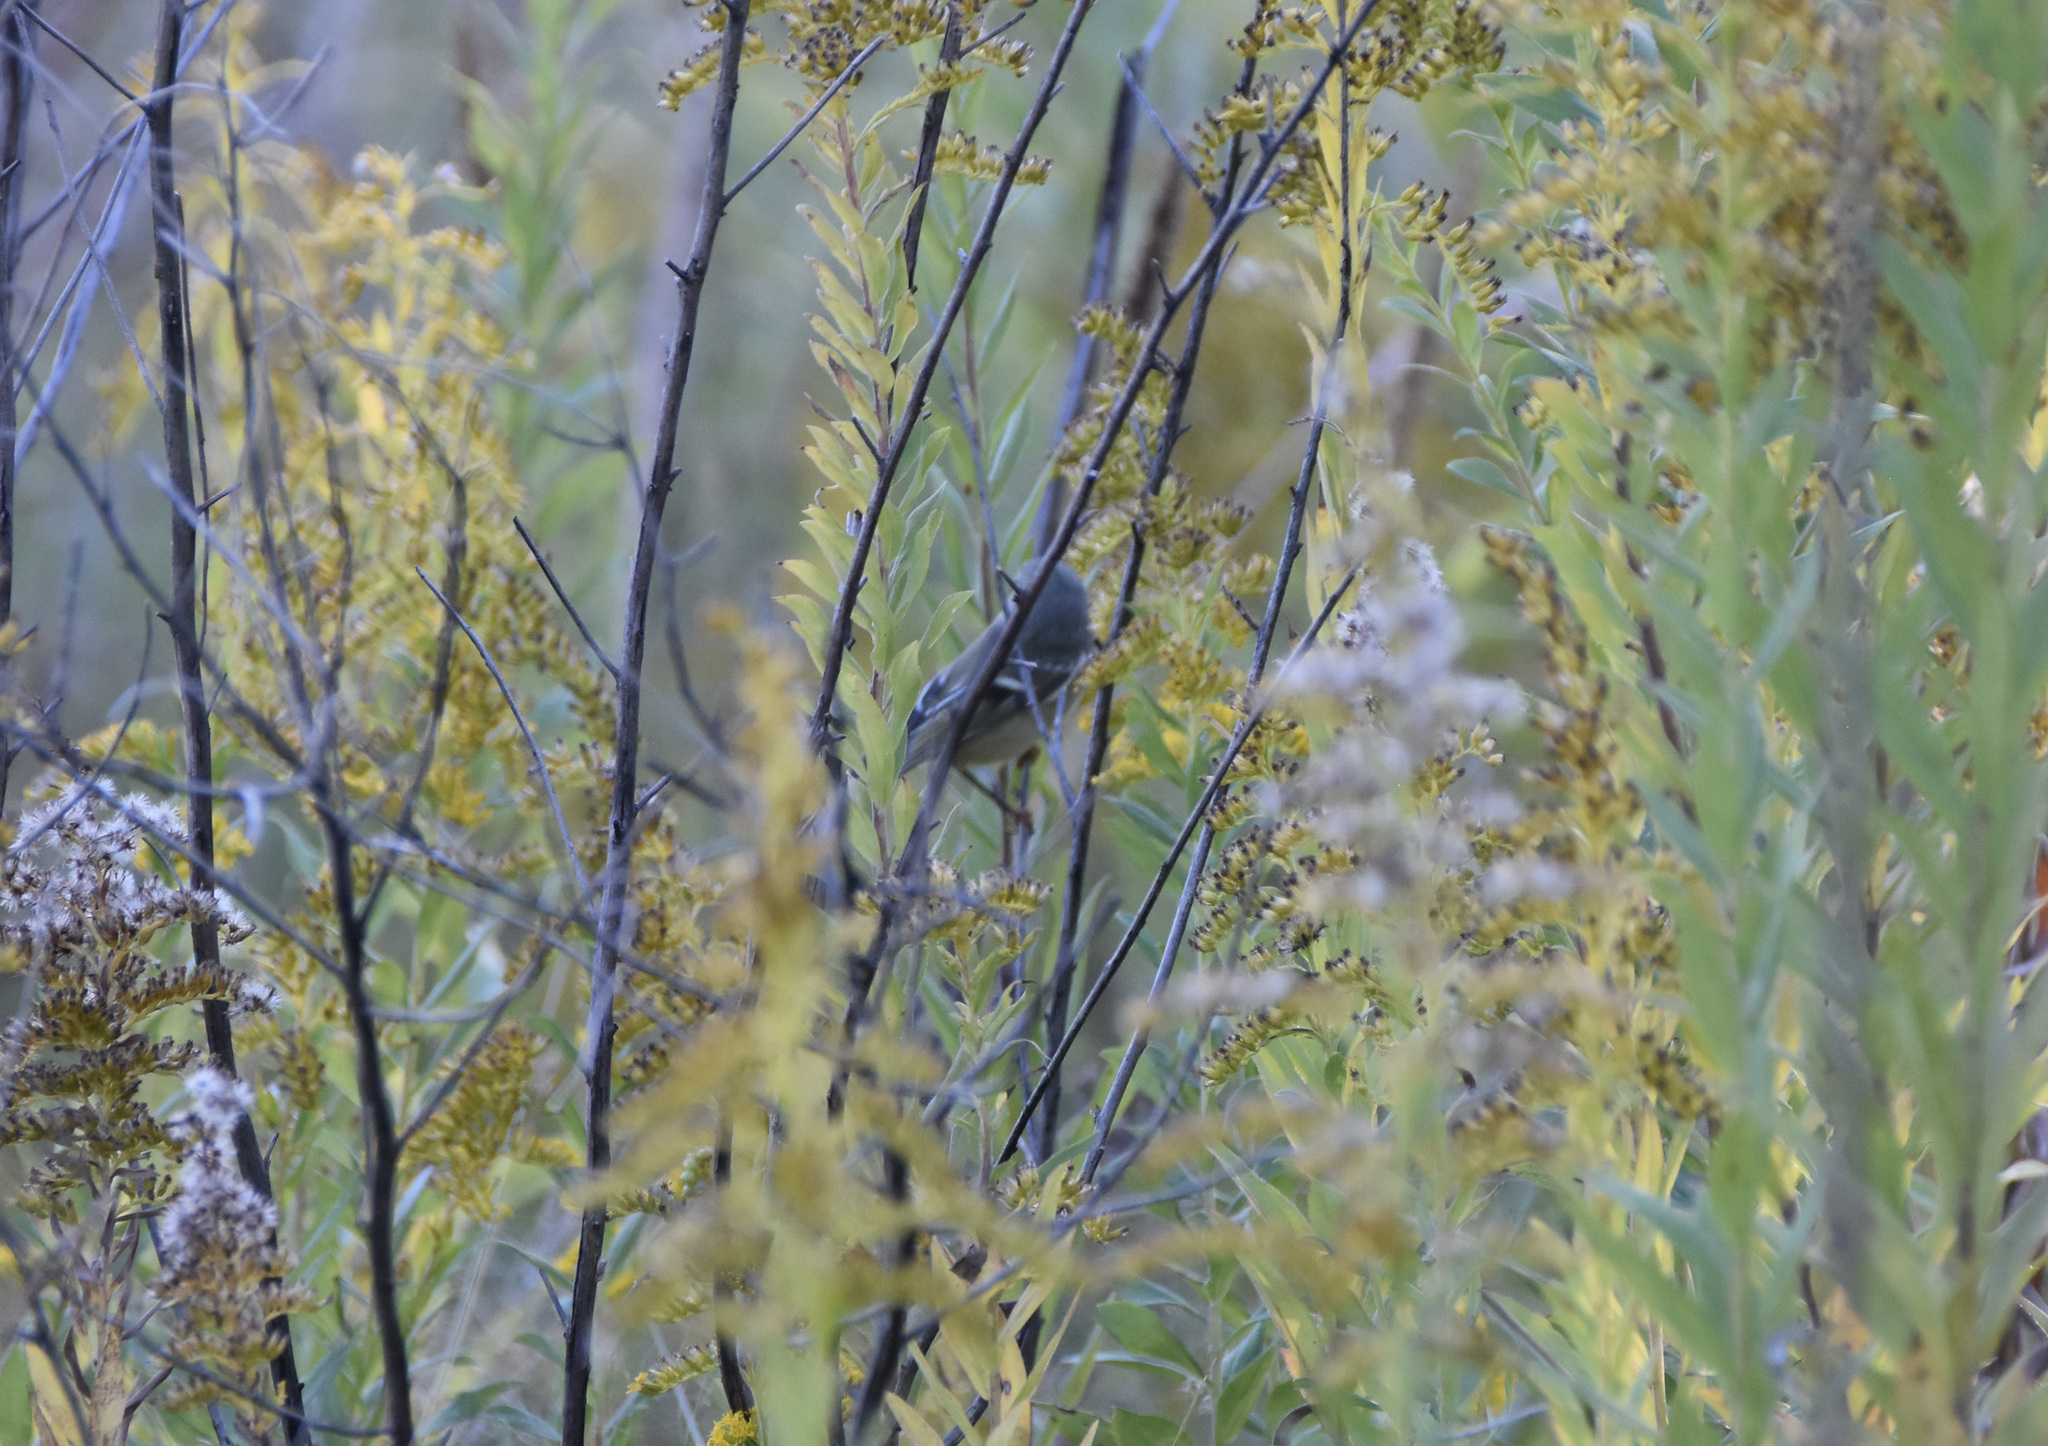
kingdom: Animalia
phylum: Chordata
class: Aves
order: Passeriformes
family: Regulidae
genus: Regulus
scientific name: Regulus calendula
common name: Ruby-crowned kinglet
